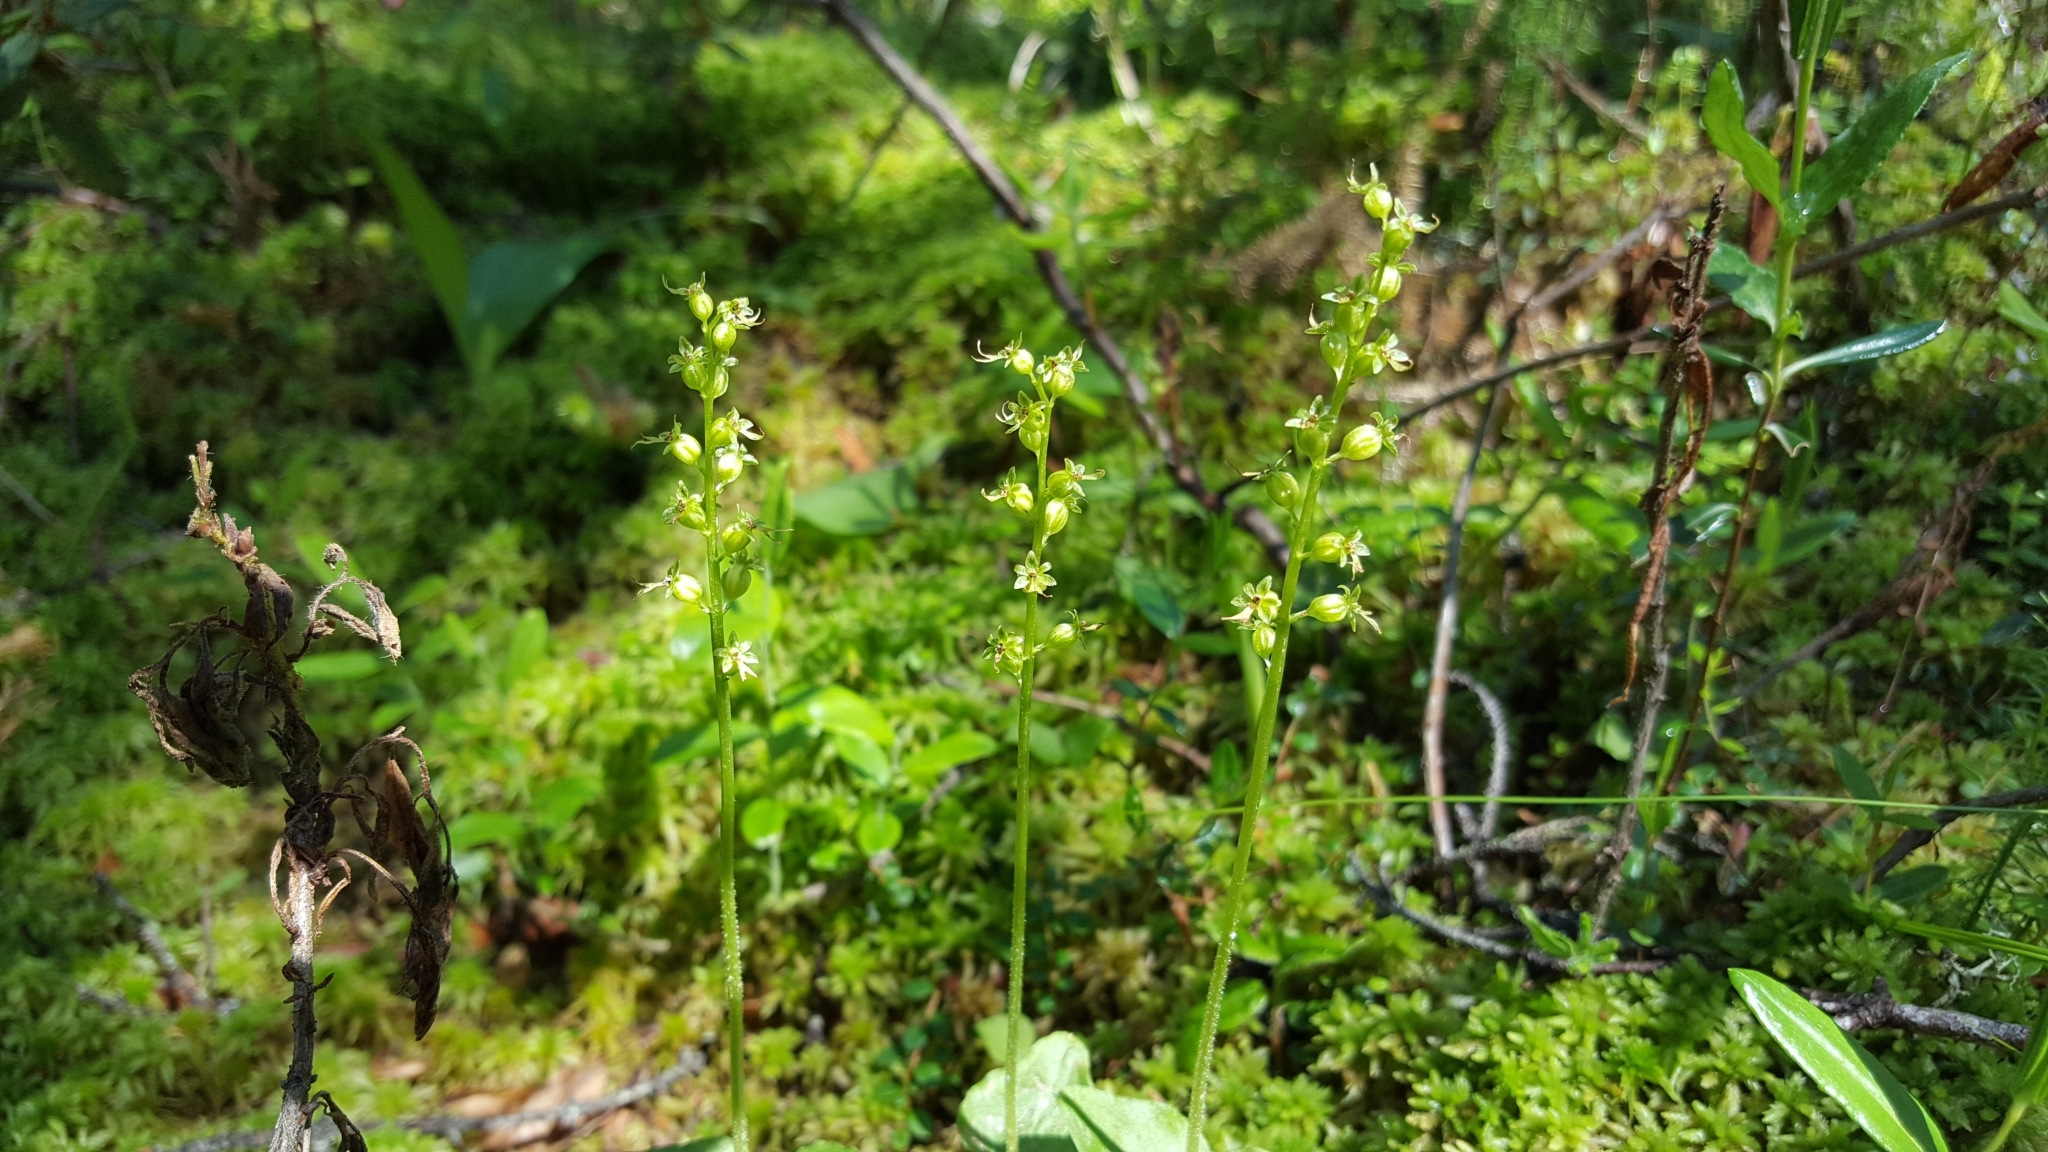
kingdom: Plantae
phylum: Tracheophyta
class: Liliopsida
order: Asparagales
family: Orchidaceae
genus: Neottia
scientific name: Neottia cordata
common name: Lesser twayblade
